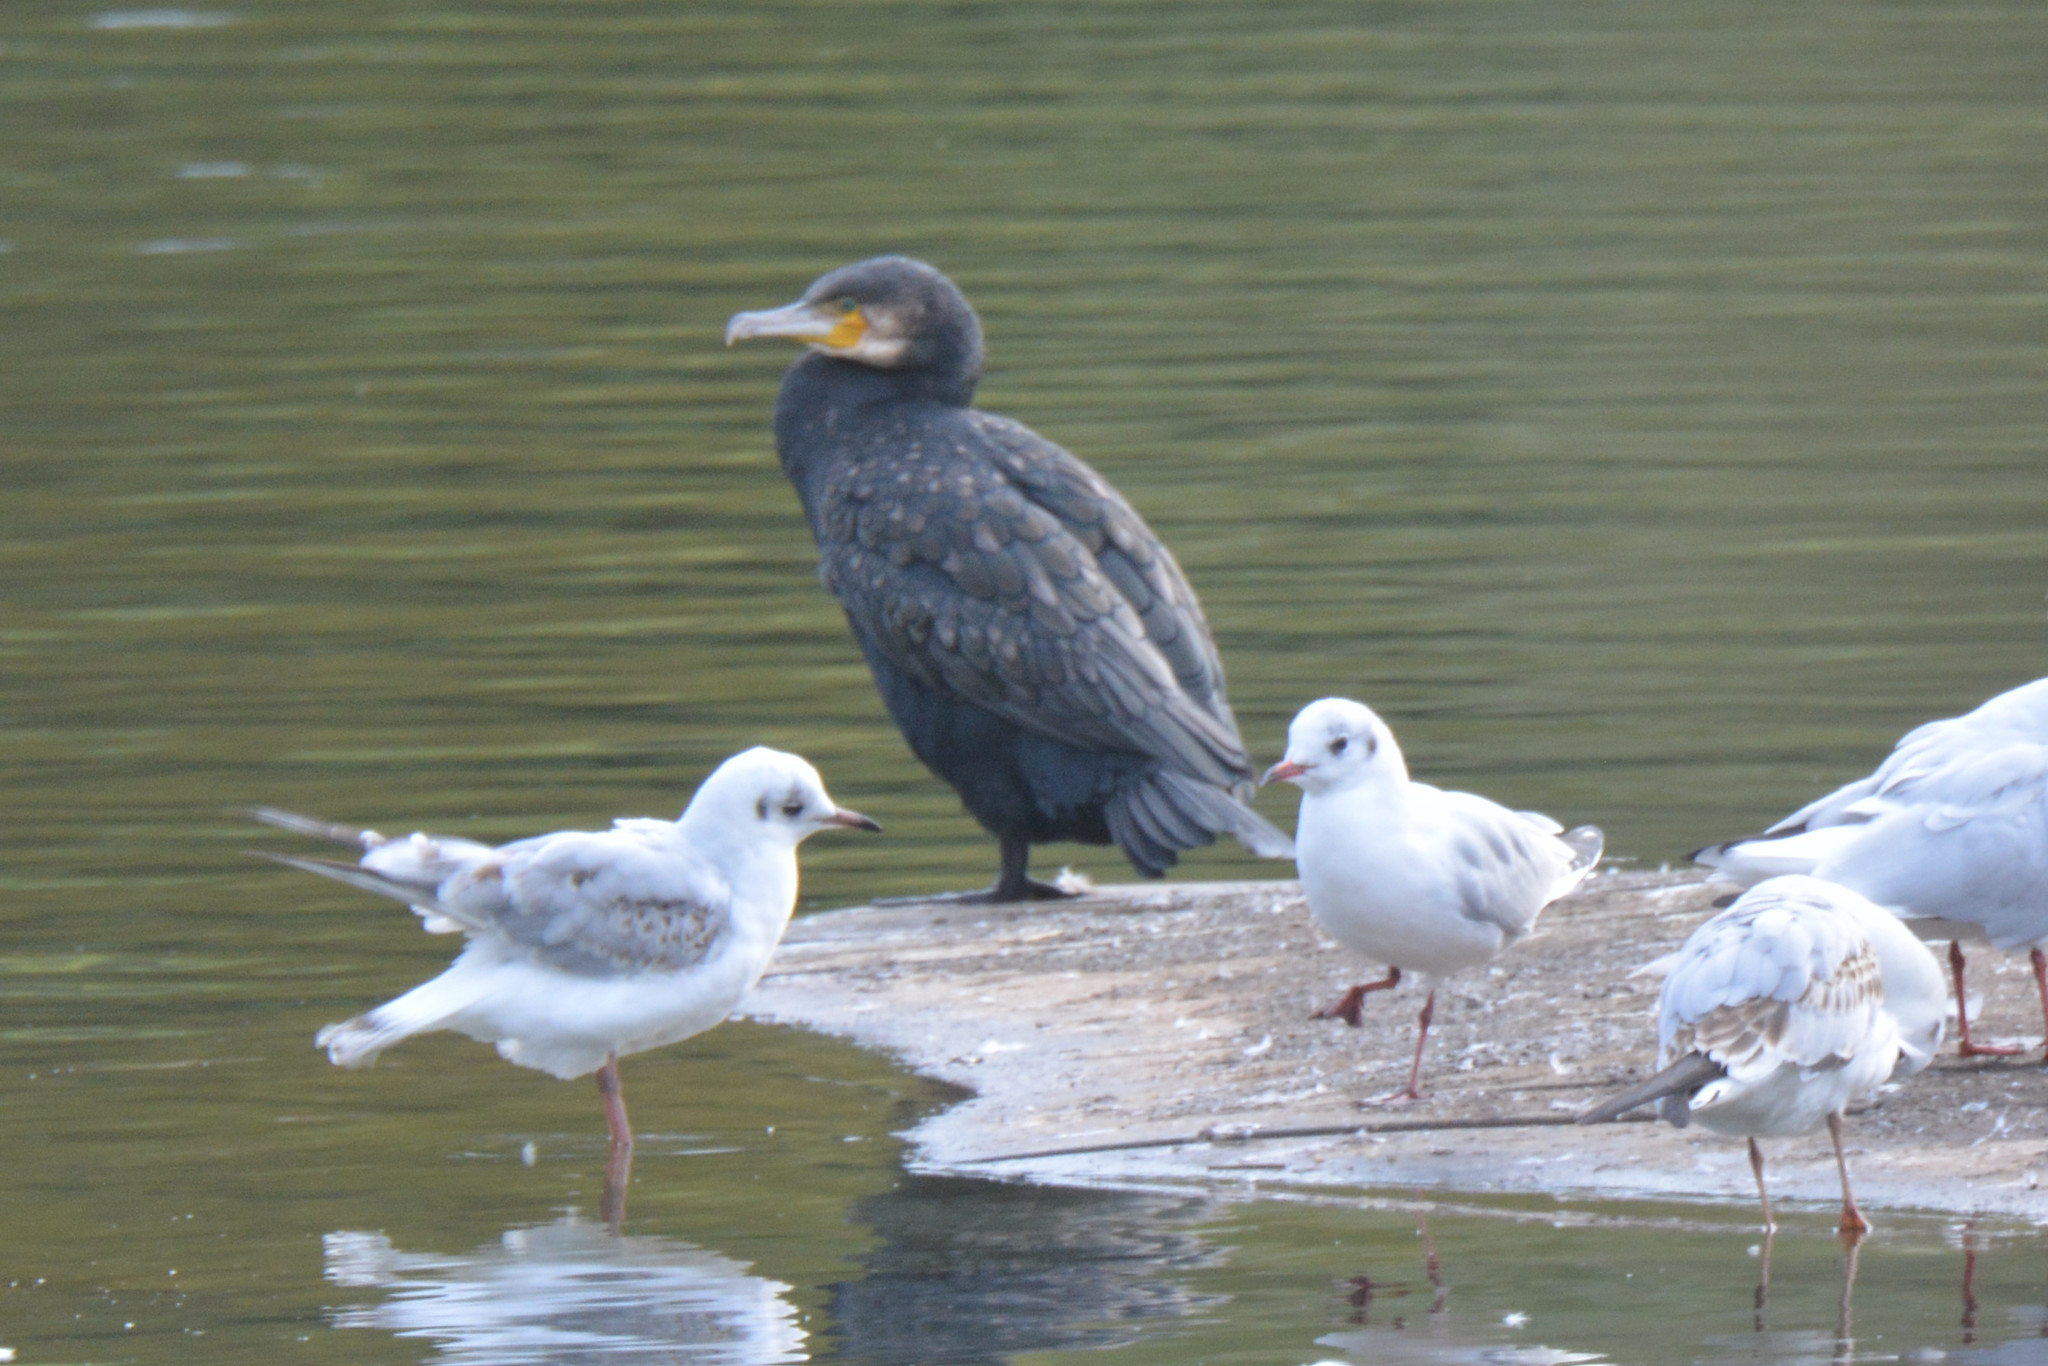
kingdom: Animalia
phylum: Chordata
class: Aves
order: Suliformes
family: Phalacrocoracidae
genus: Phalacrocorax
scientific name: Phalacrocorax carbo
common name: Great cormorant
